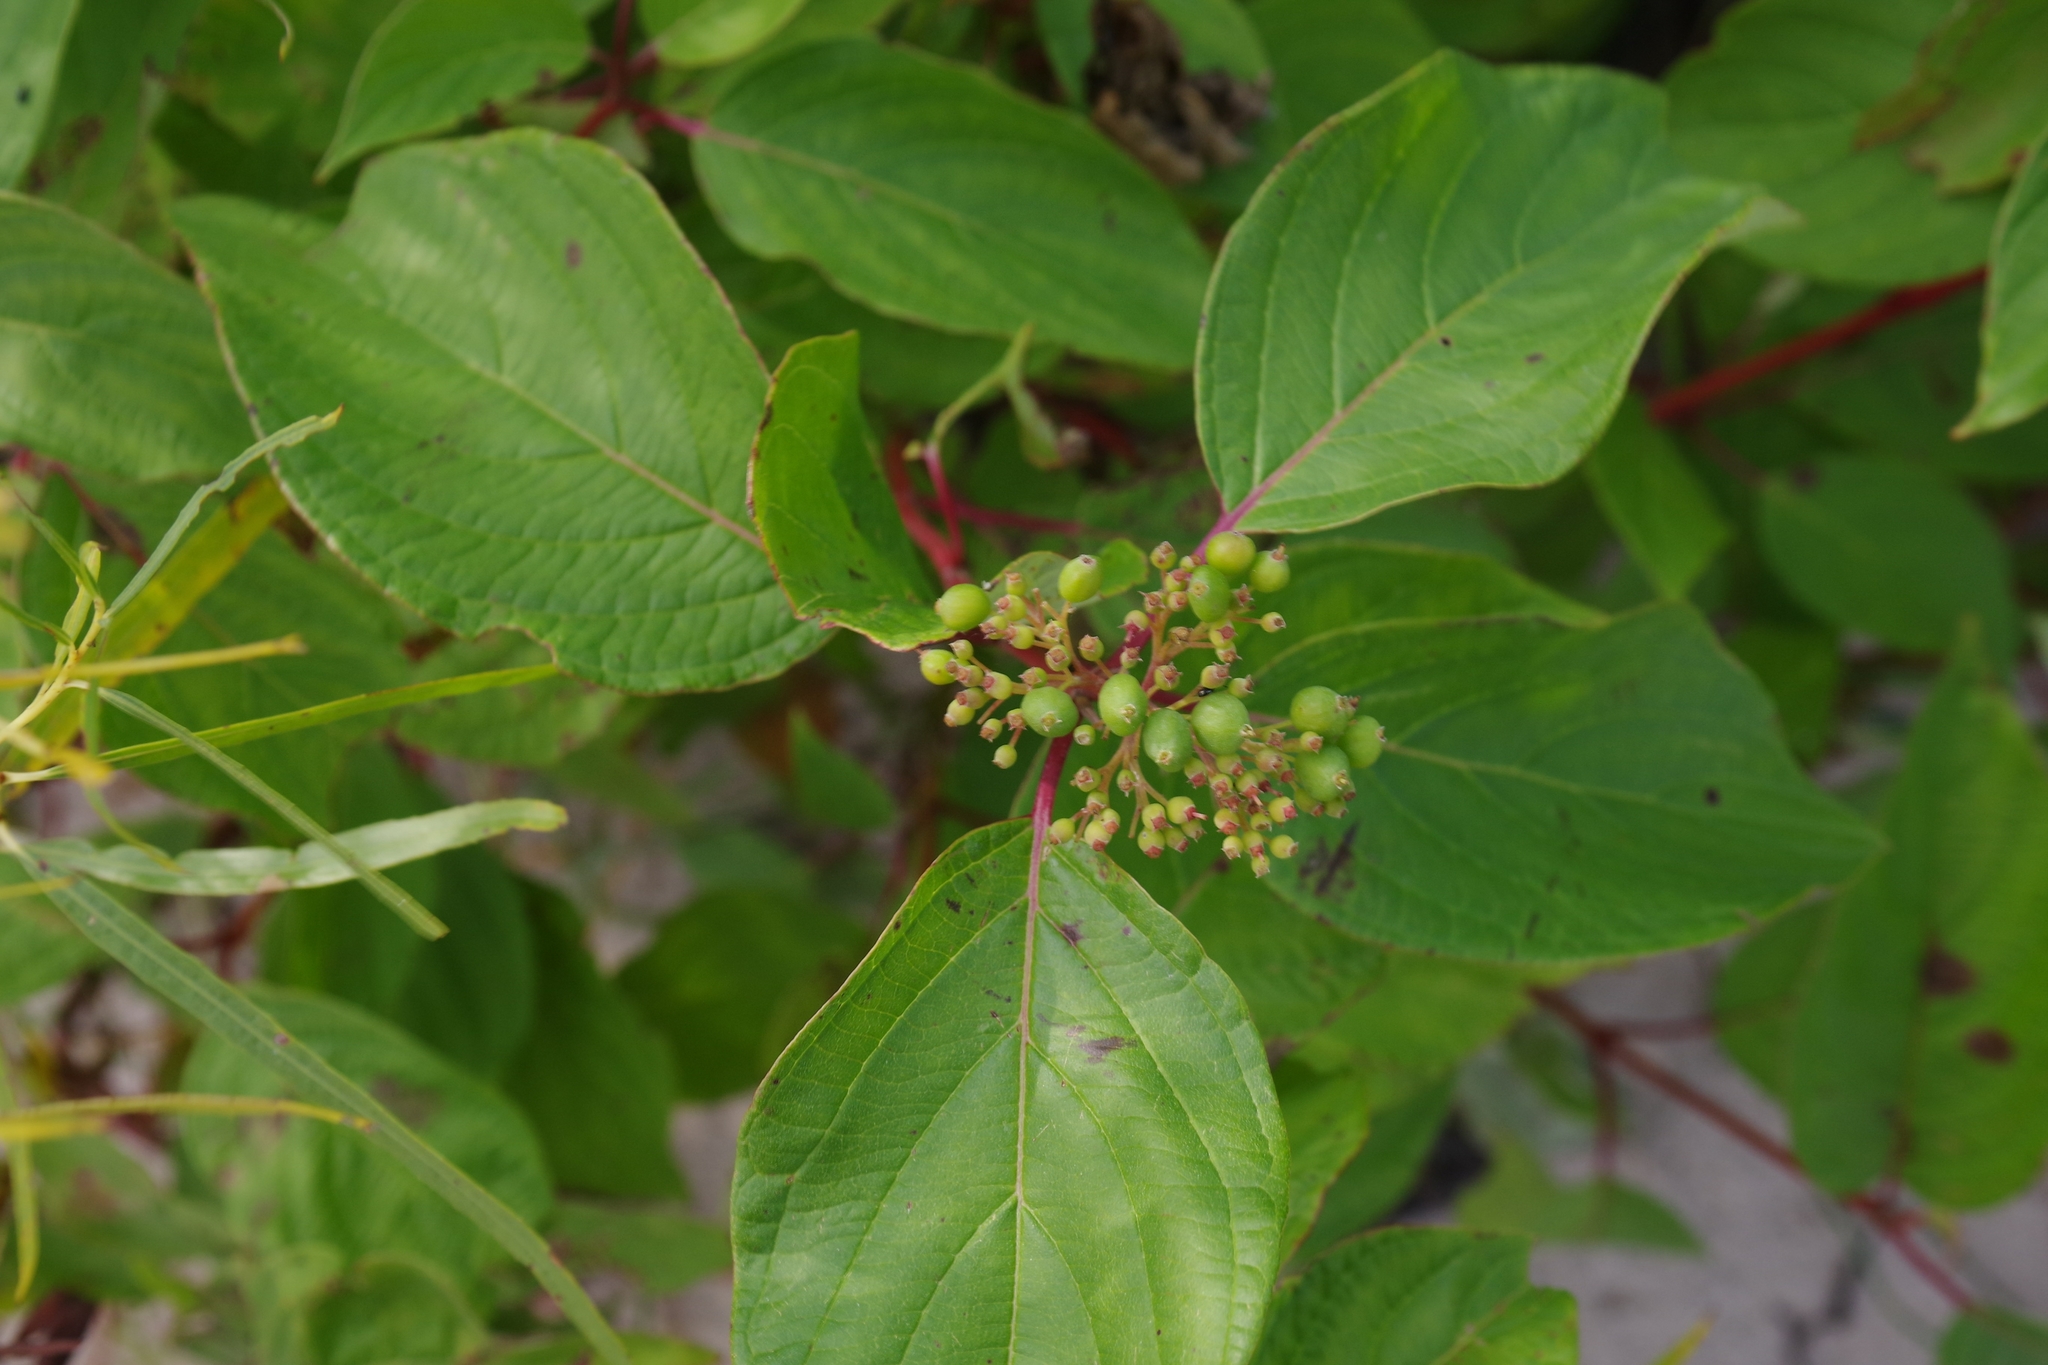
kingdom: Plantae
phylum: Tracheophyta
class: Magnoliopsida
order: Cornales
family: Cornaceae
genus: Cornus
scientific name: Cornus sericea
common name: Red-osier dogwood
